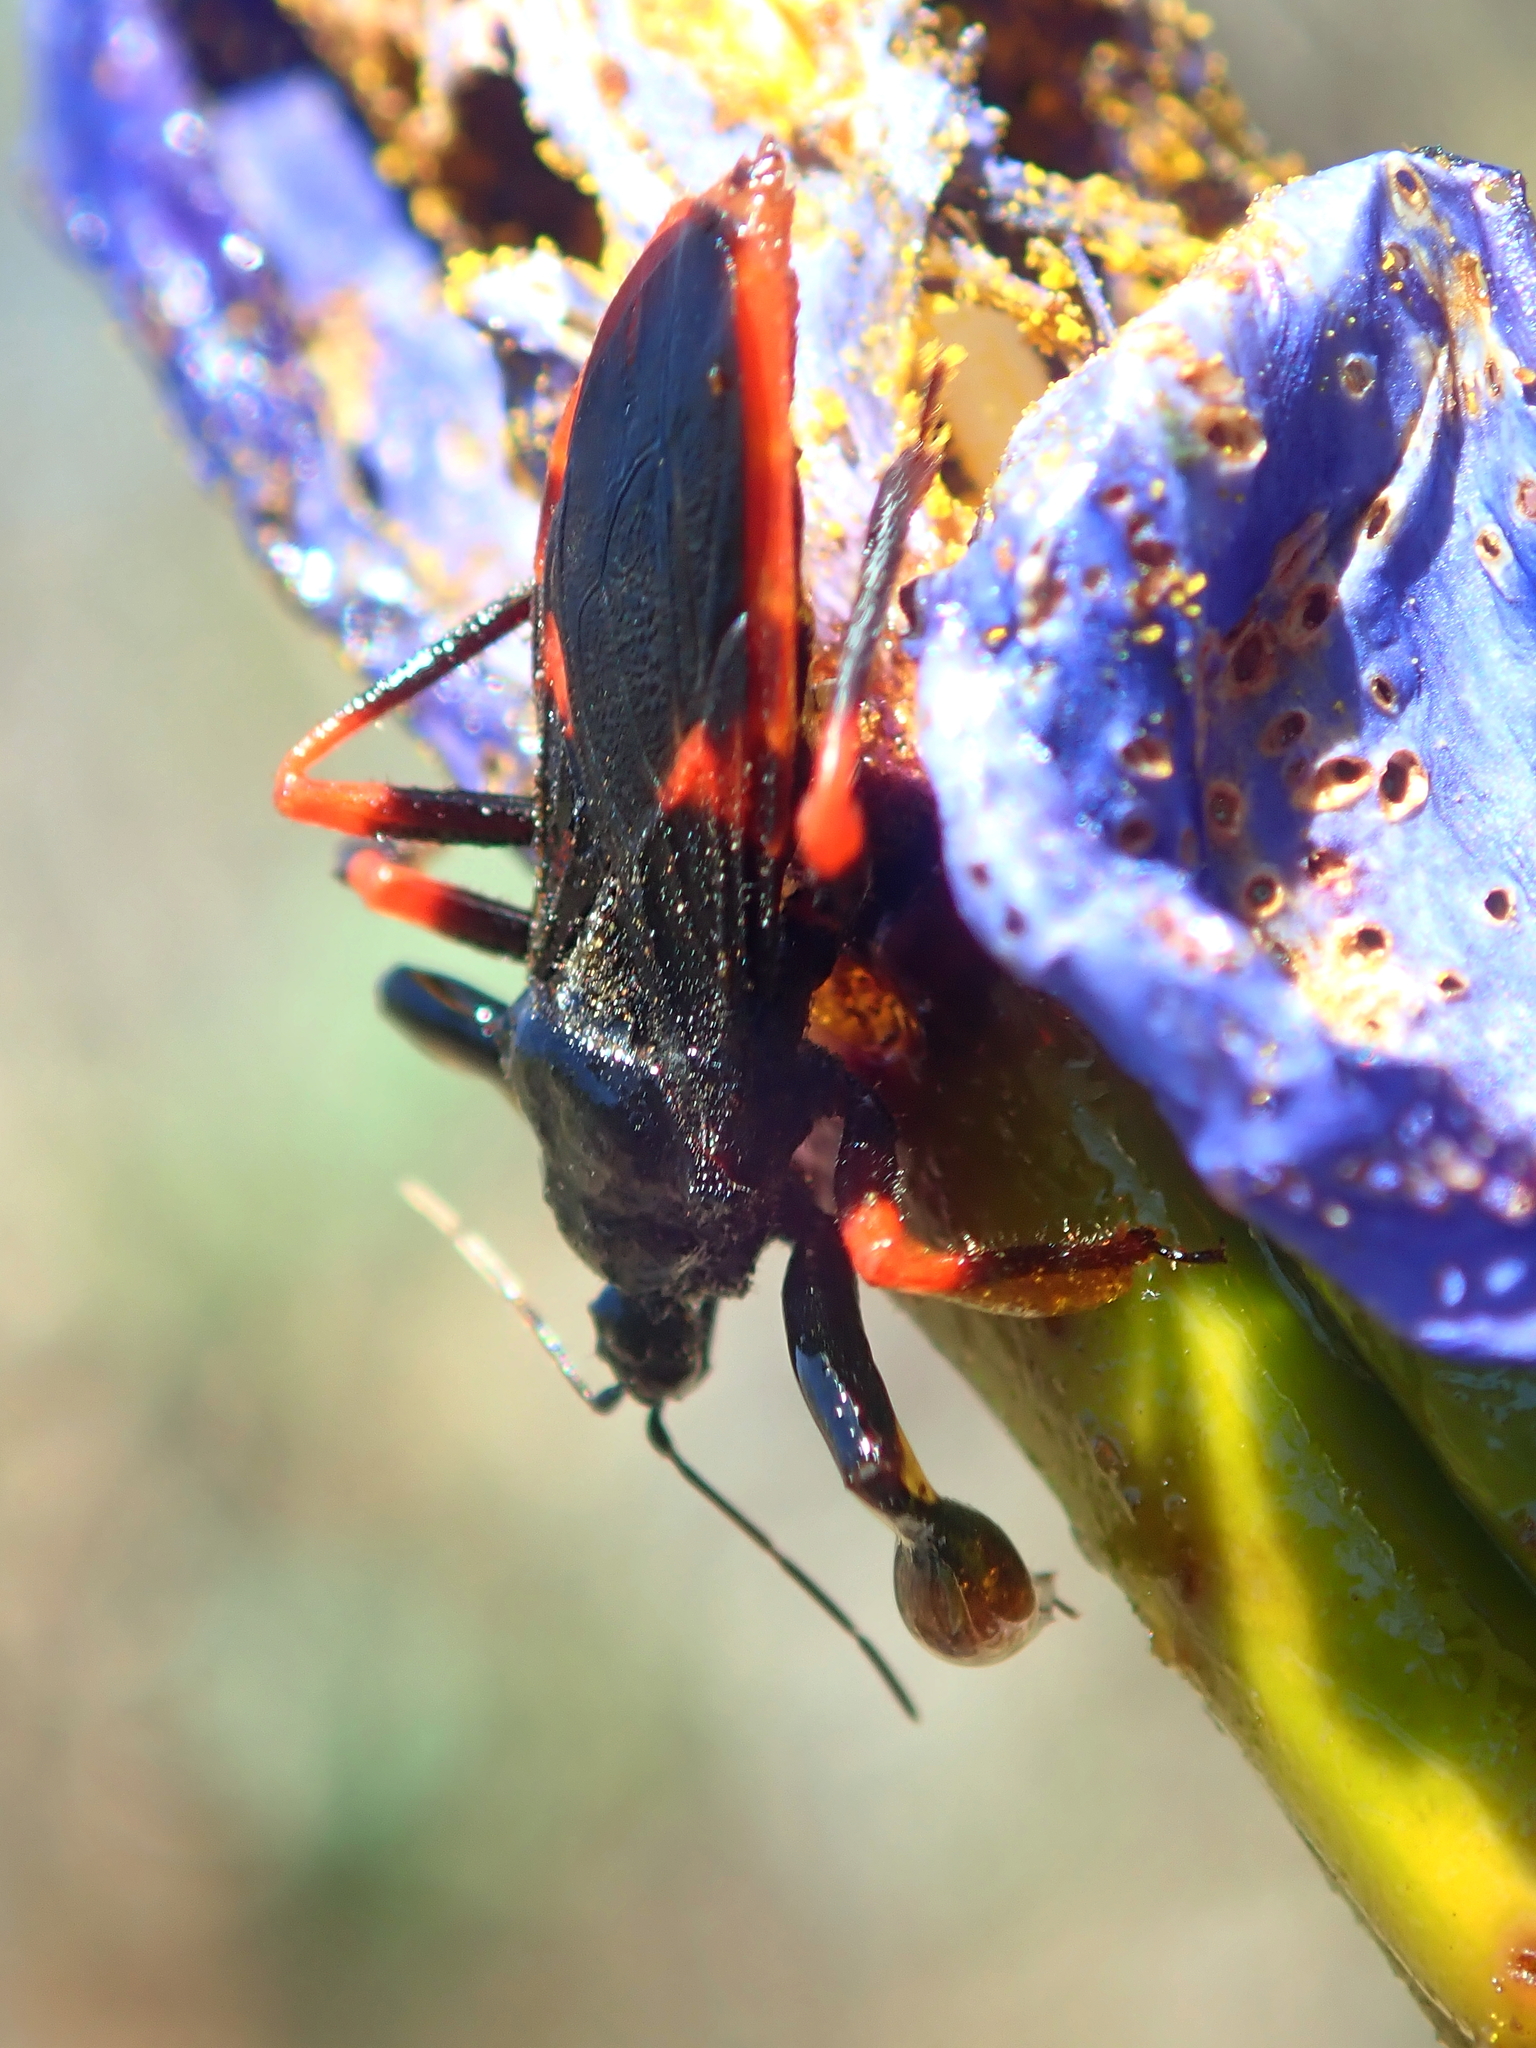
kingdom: Animalia
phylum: Arthropoda
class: Insecta
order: Hemiptera
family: Reduviidae
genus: Ponerobia
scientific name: Ponerobia bipustulata
